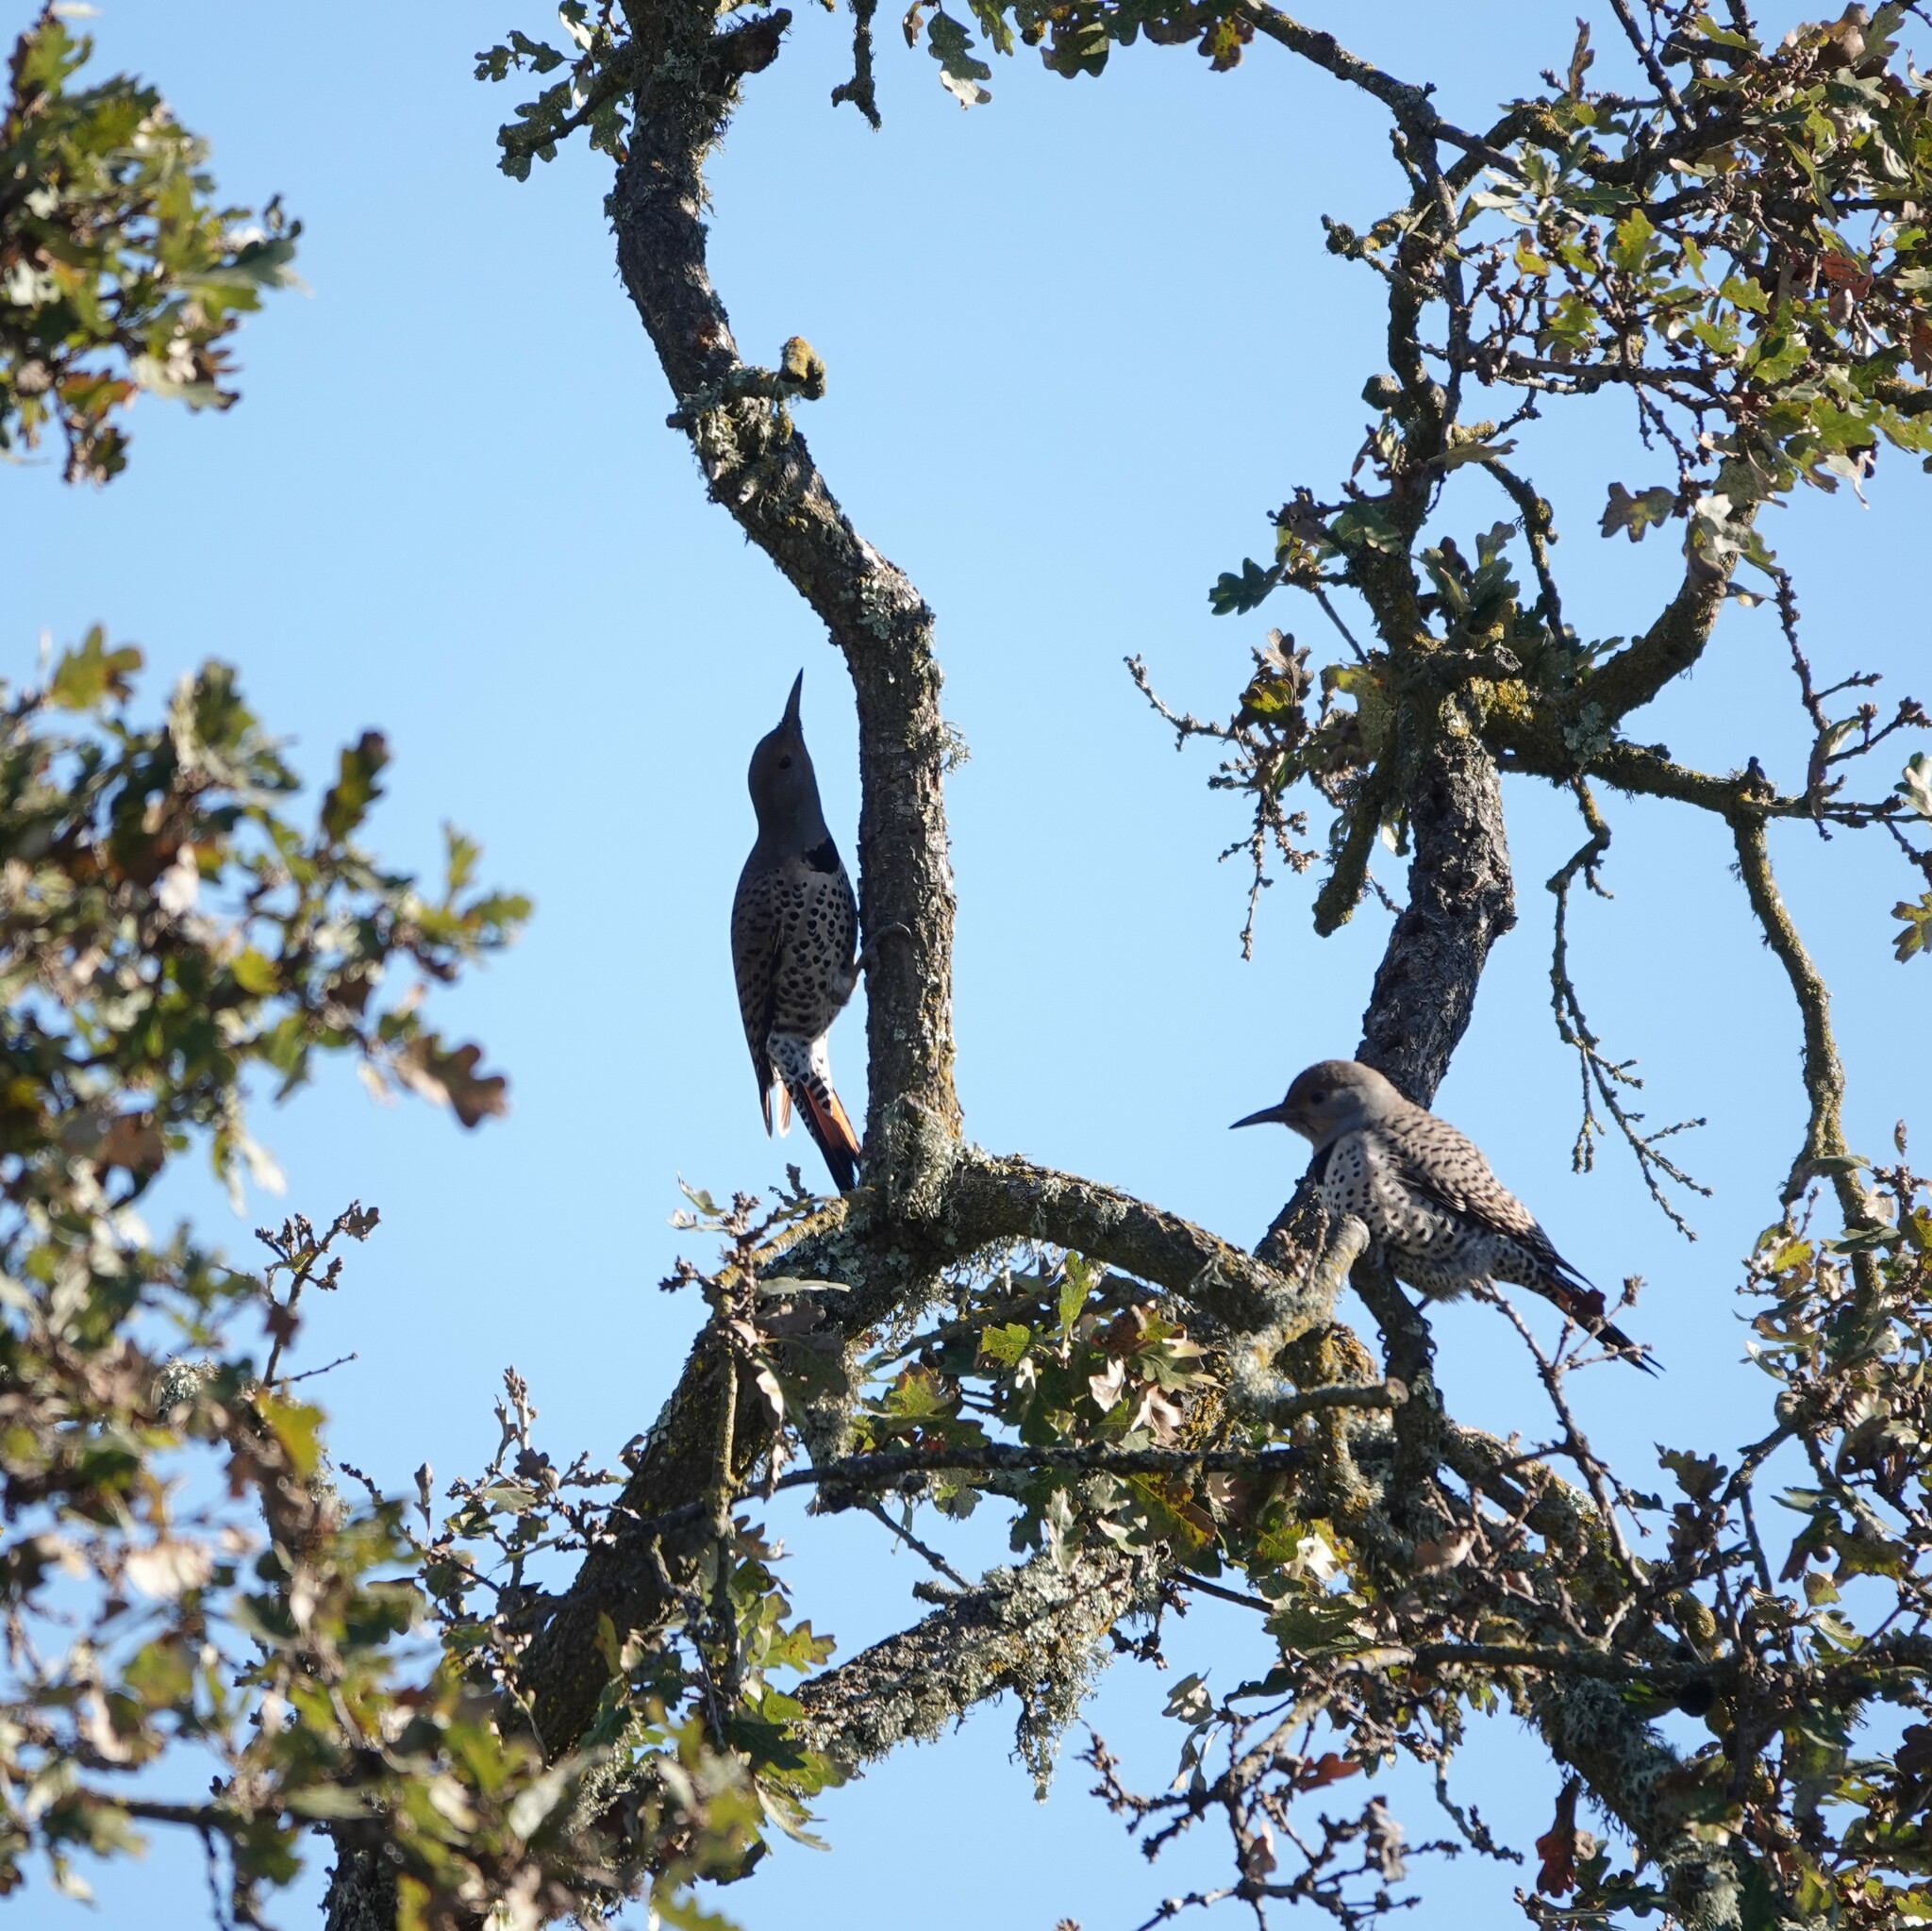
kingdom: Animalia
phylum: Chordata
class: Aves
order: Piciformes
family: Picidae
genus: Colaptes
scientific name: Colaptes auratus
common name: Northern flicker
